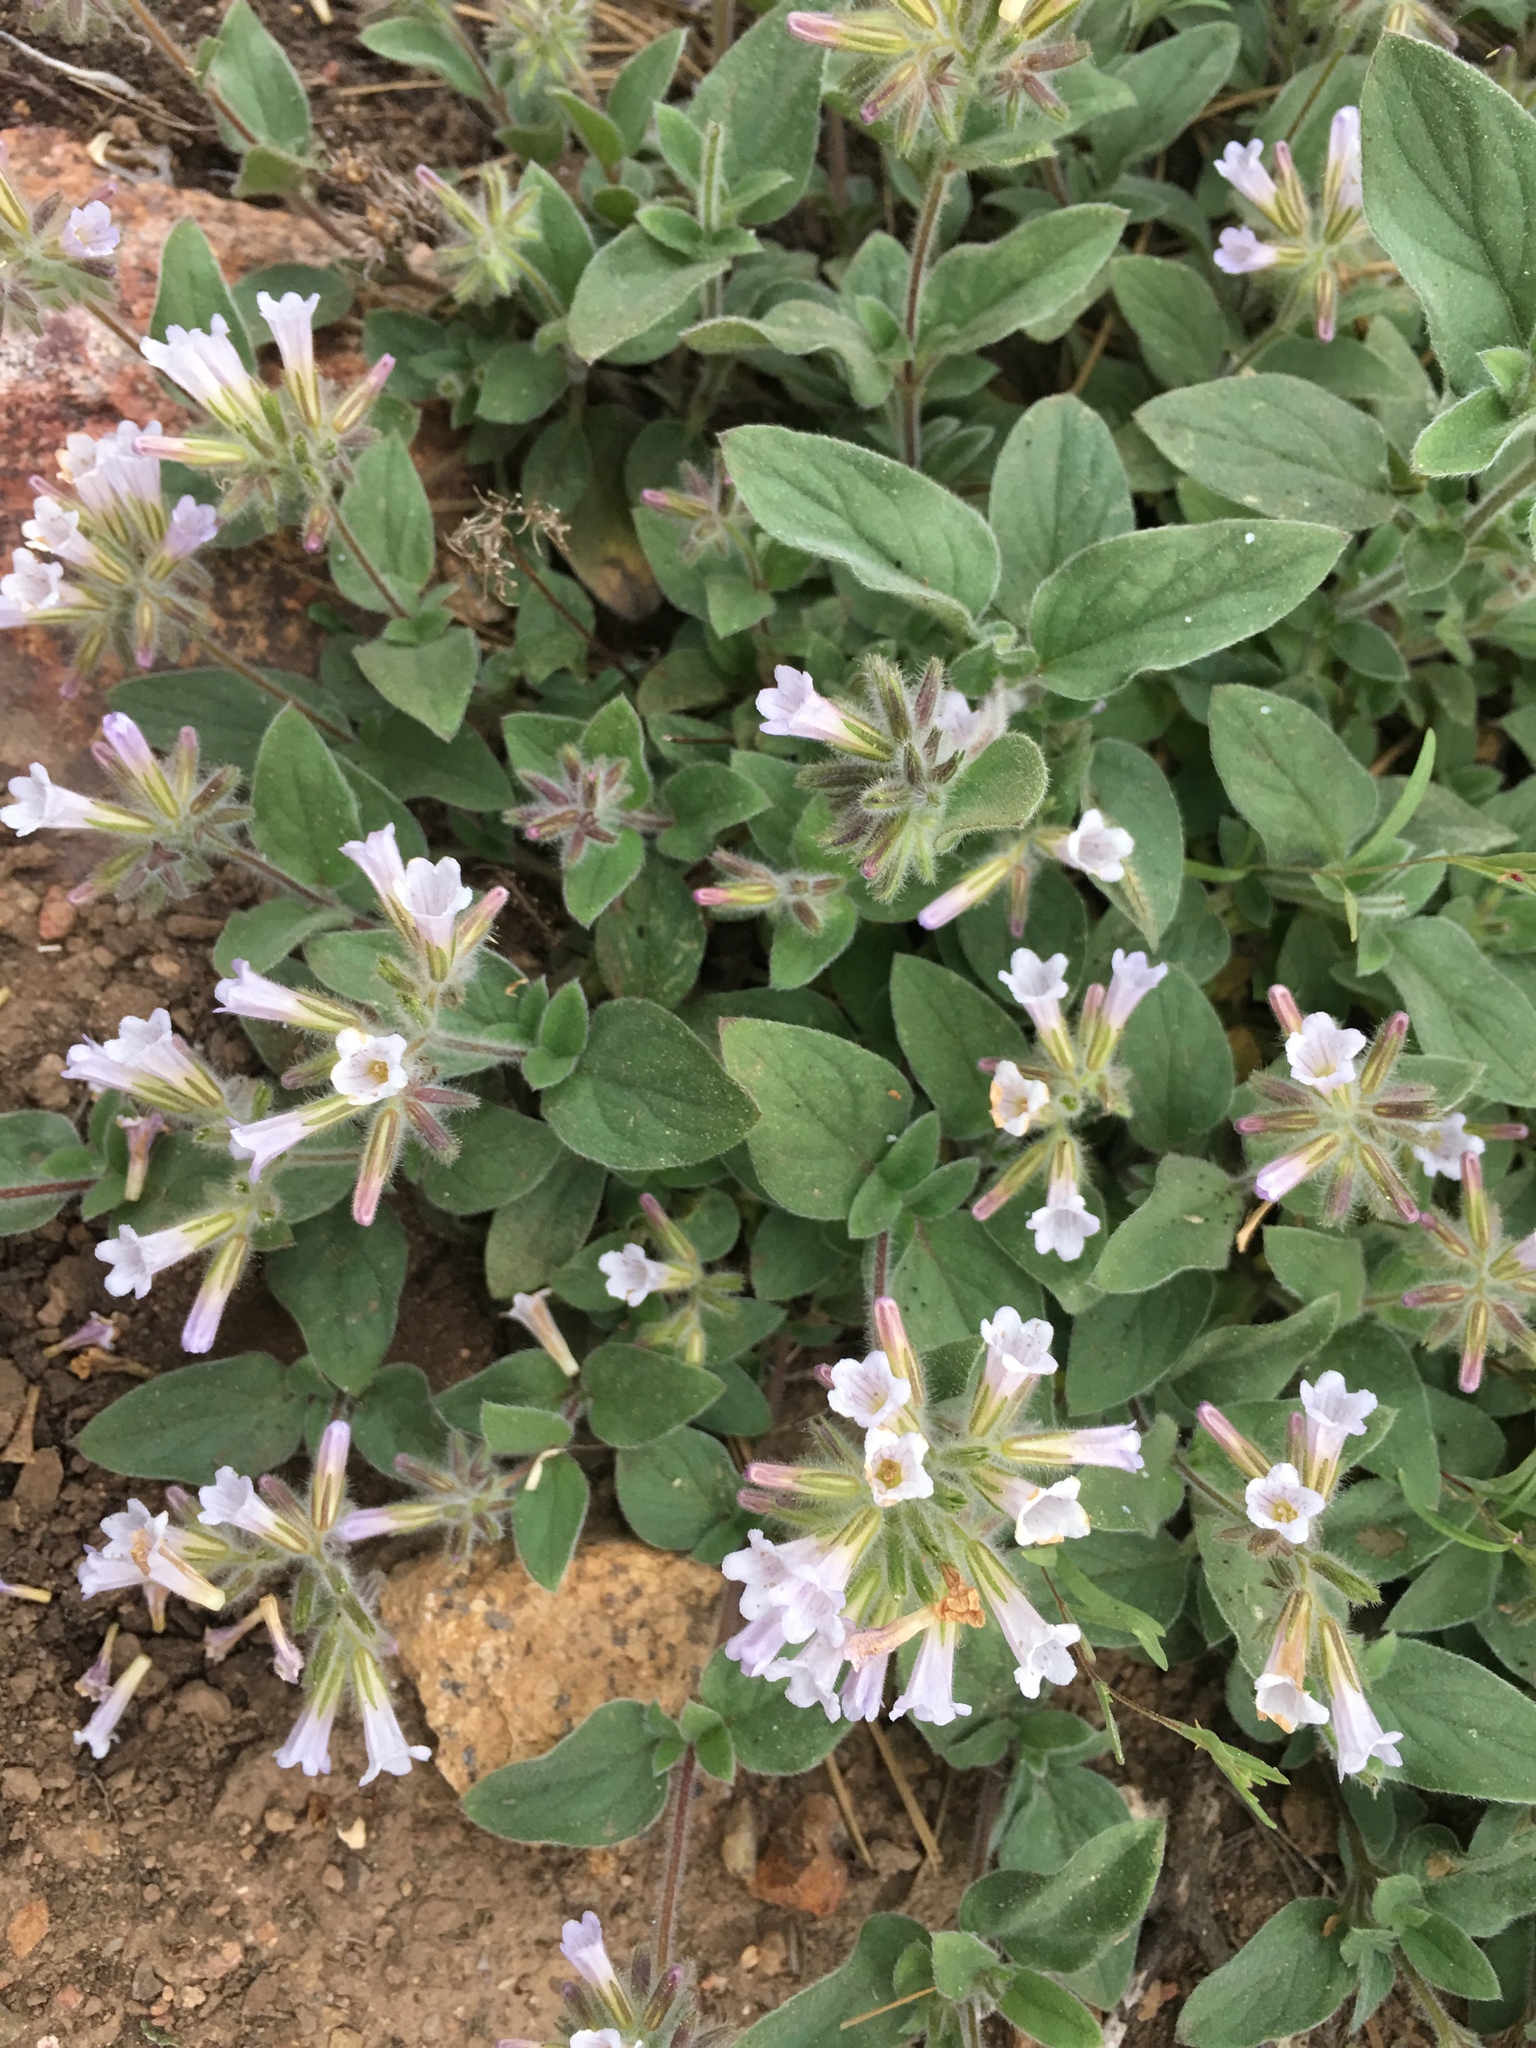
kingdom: Plantae
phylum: Tracheophyta
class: Magnoliopsida
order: Boraginales
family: Hydrophyllaceae
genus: Draperia
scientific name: Draperia systyla
